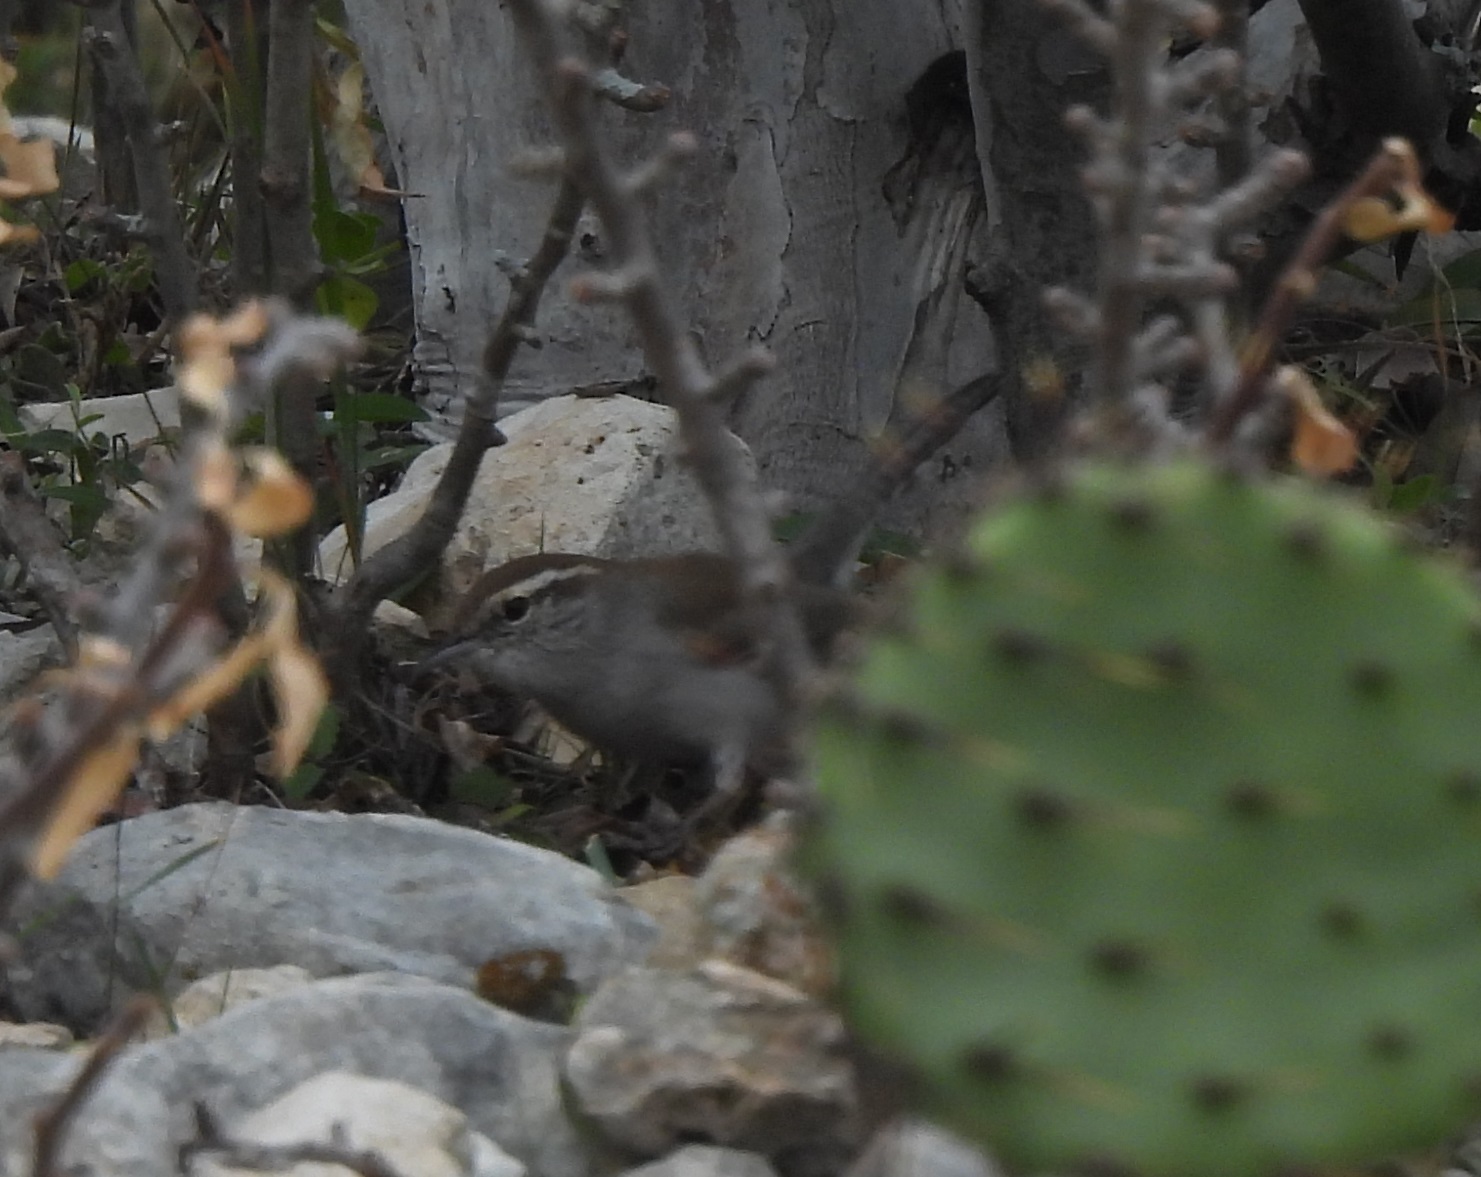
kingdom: Animalia
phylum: Chordata
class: Aves
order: Passeriformes
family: Troglodytidae
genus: Thryomanes
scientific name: Thryomanes bewickii
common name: Bewick's wren
